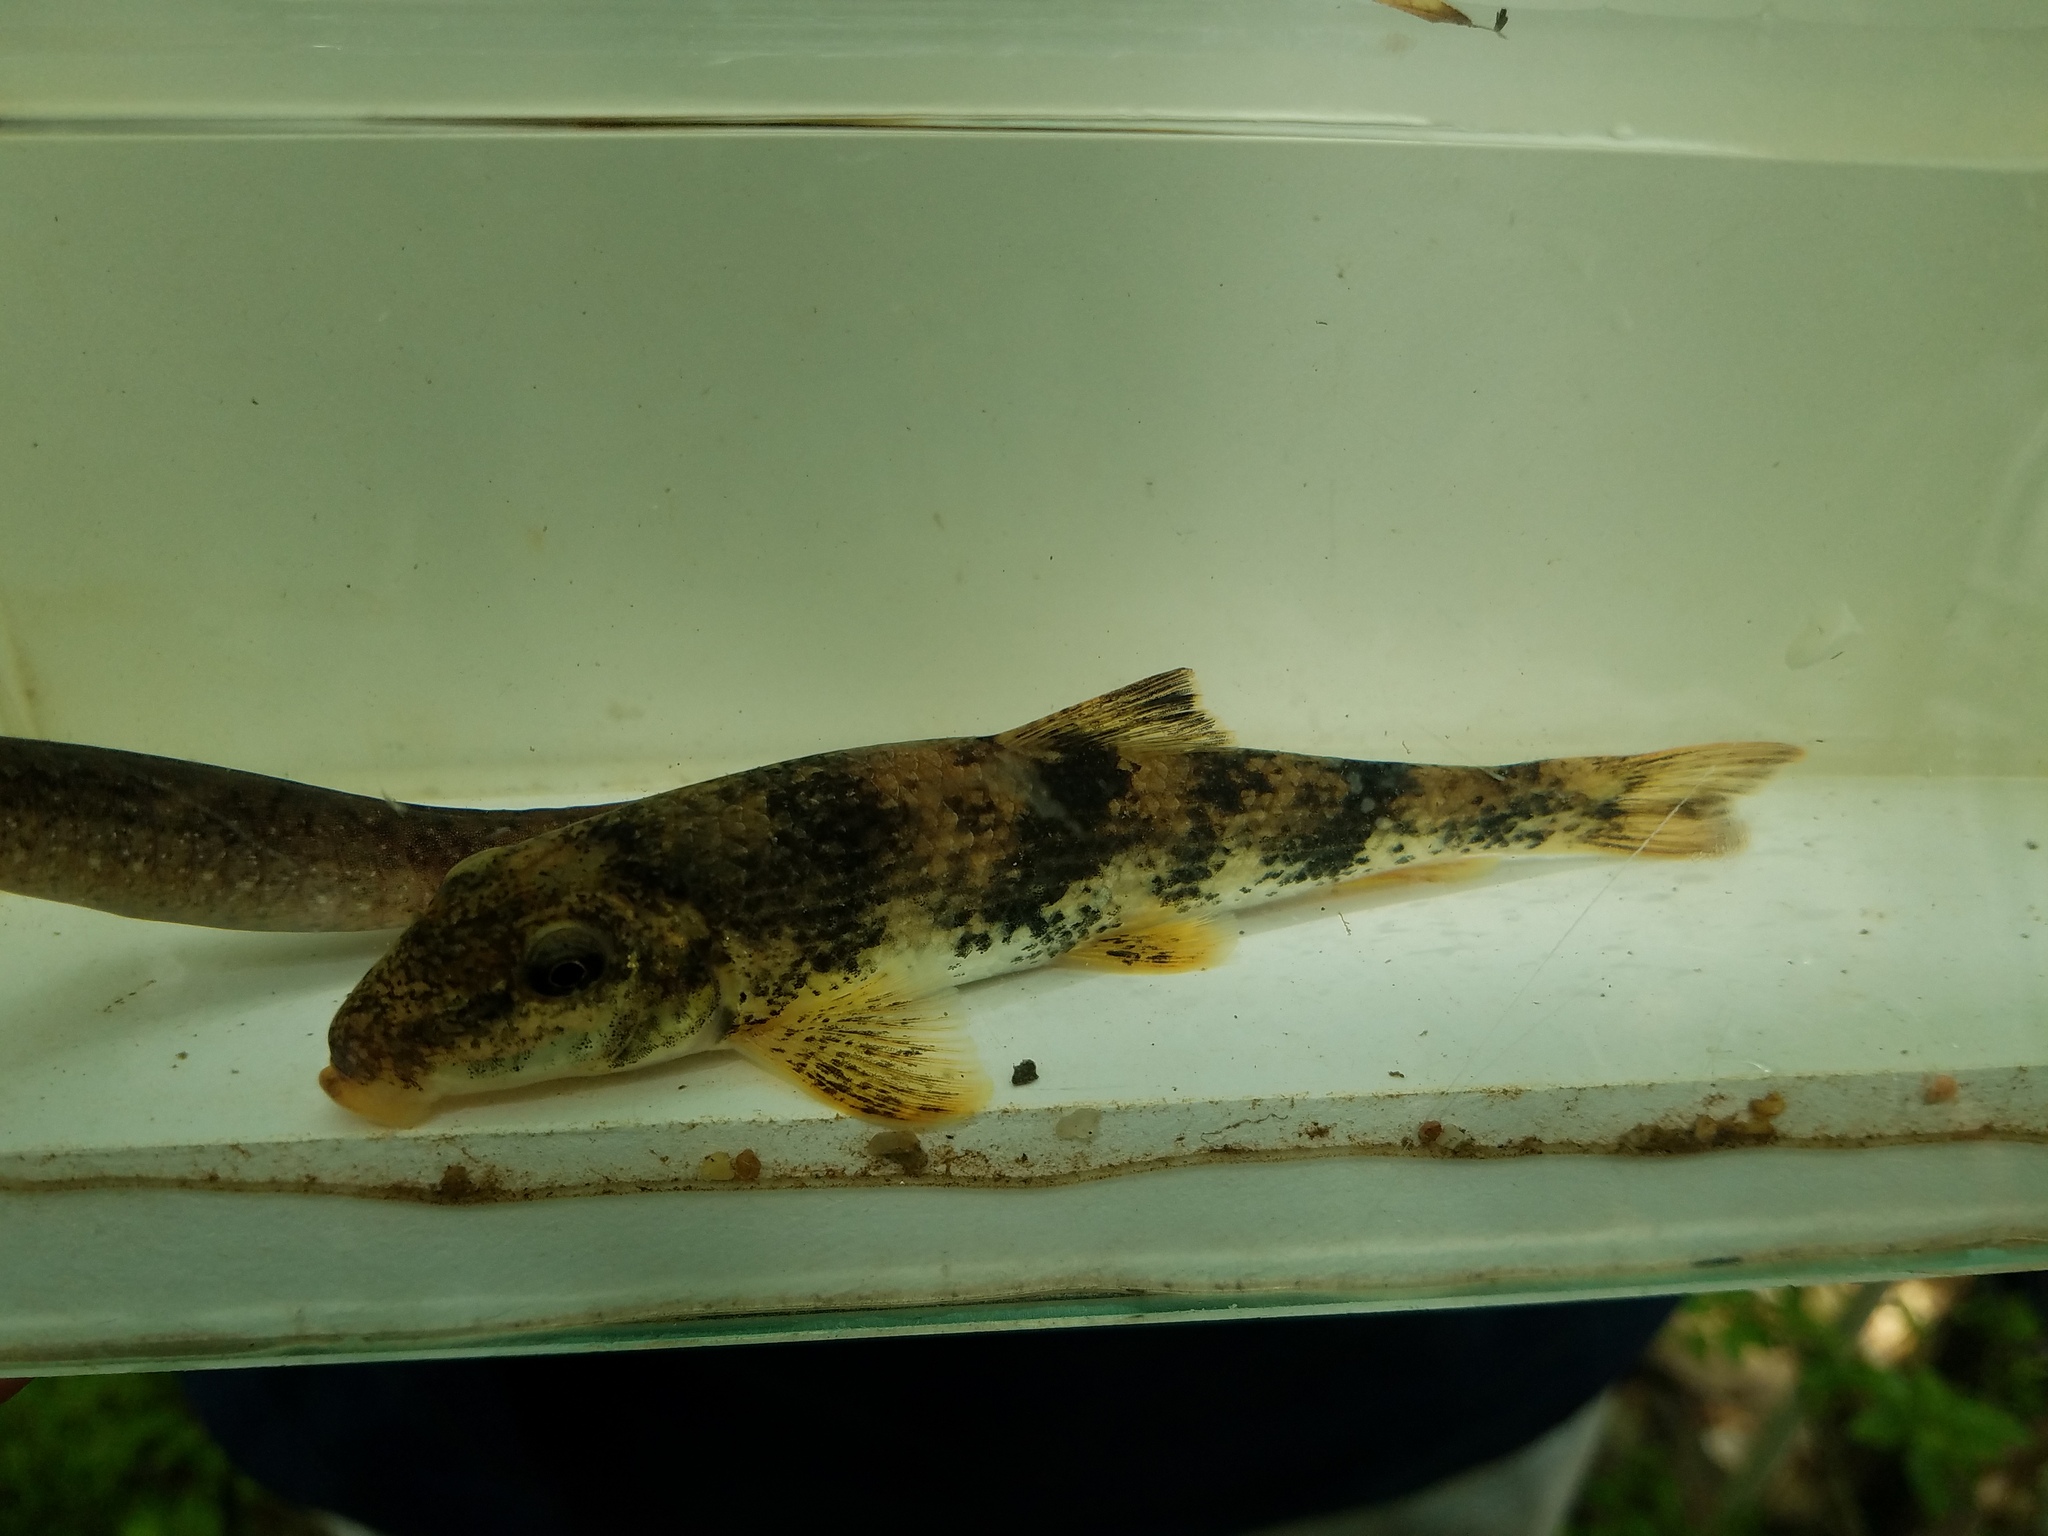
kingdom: Animalia
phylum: Chordata
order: Cypriniformes
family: Catostomidae
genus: Hypentelium
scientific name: Hypentelium etowanum
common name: Alabama hog sucker
